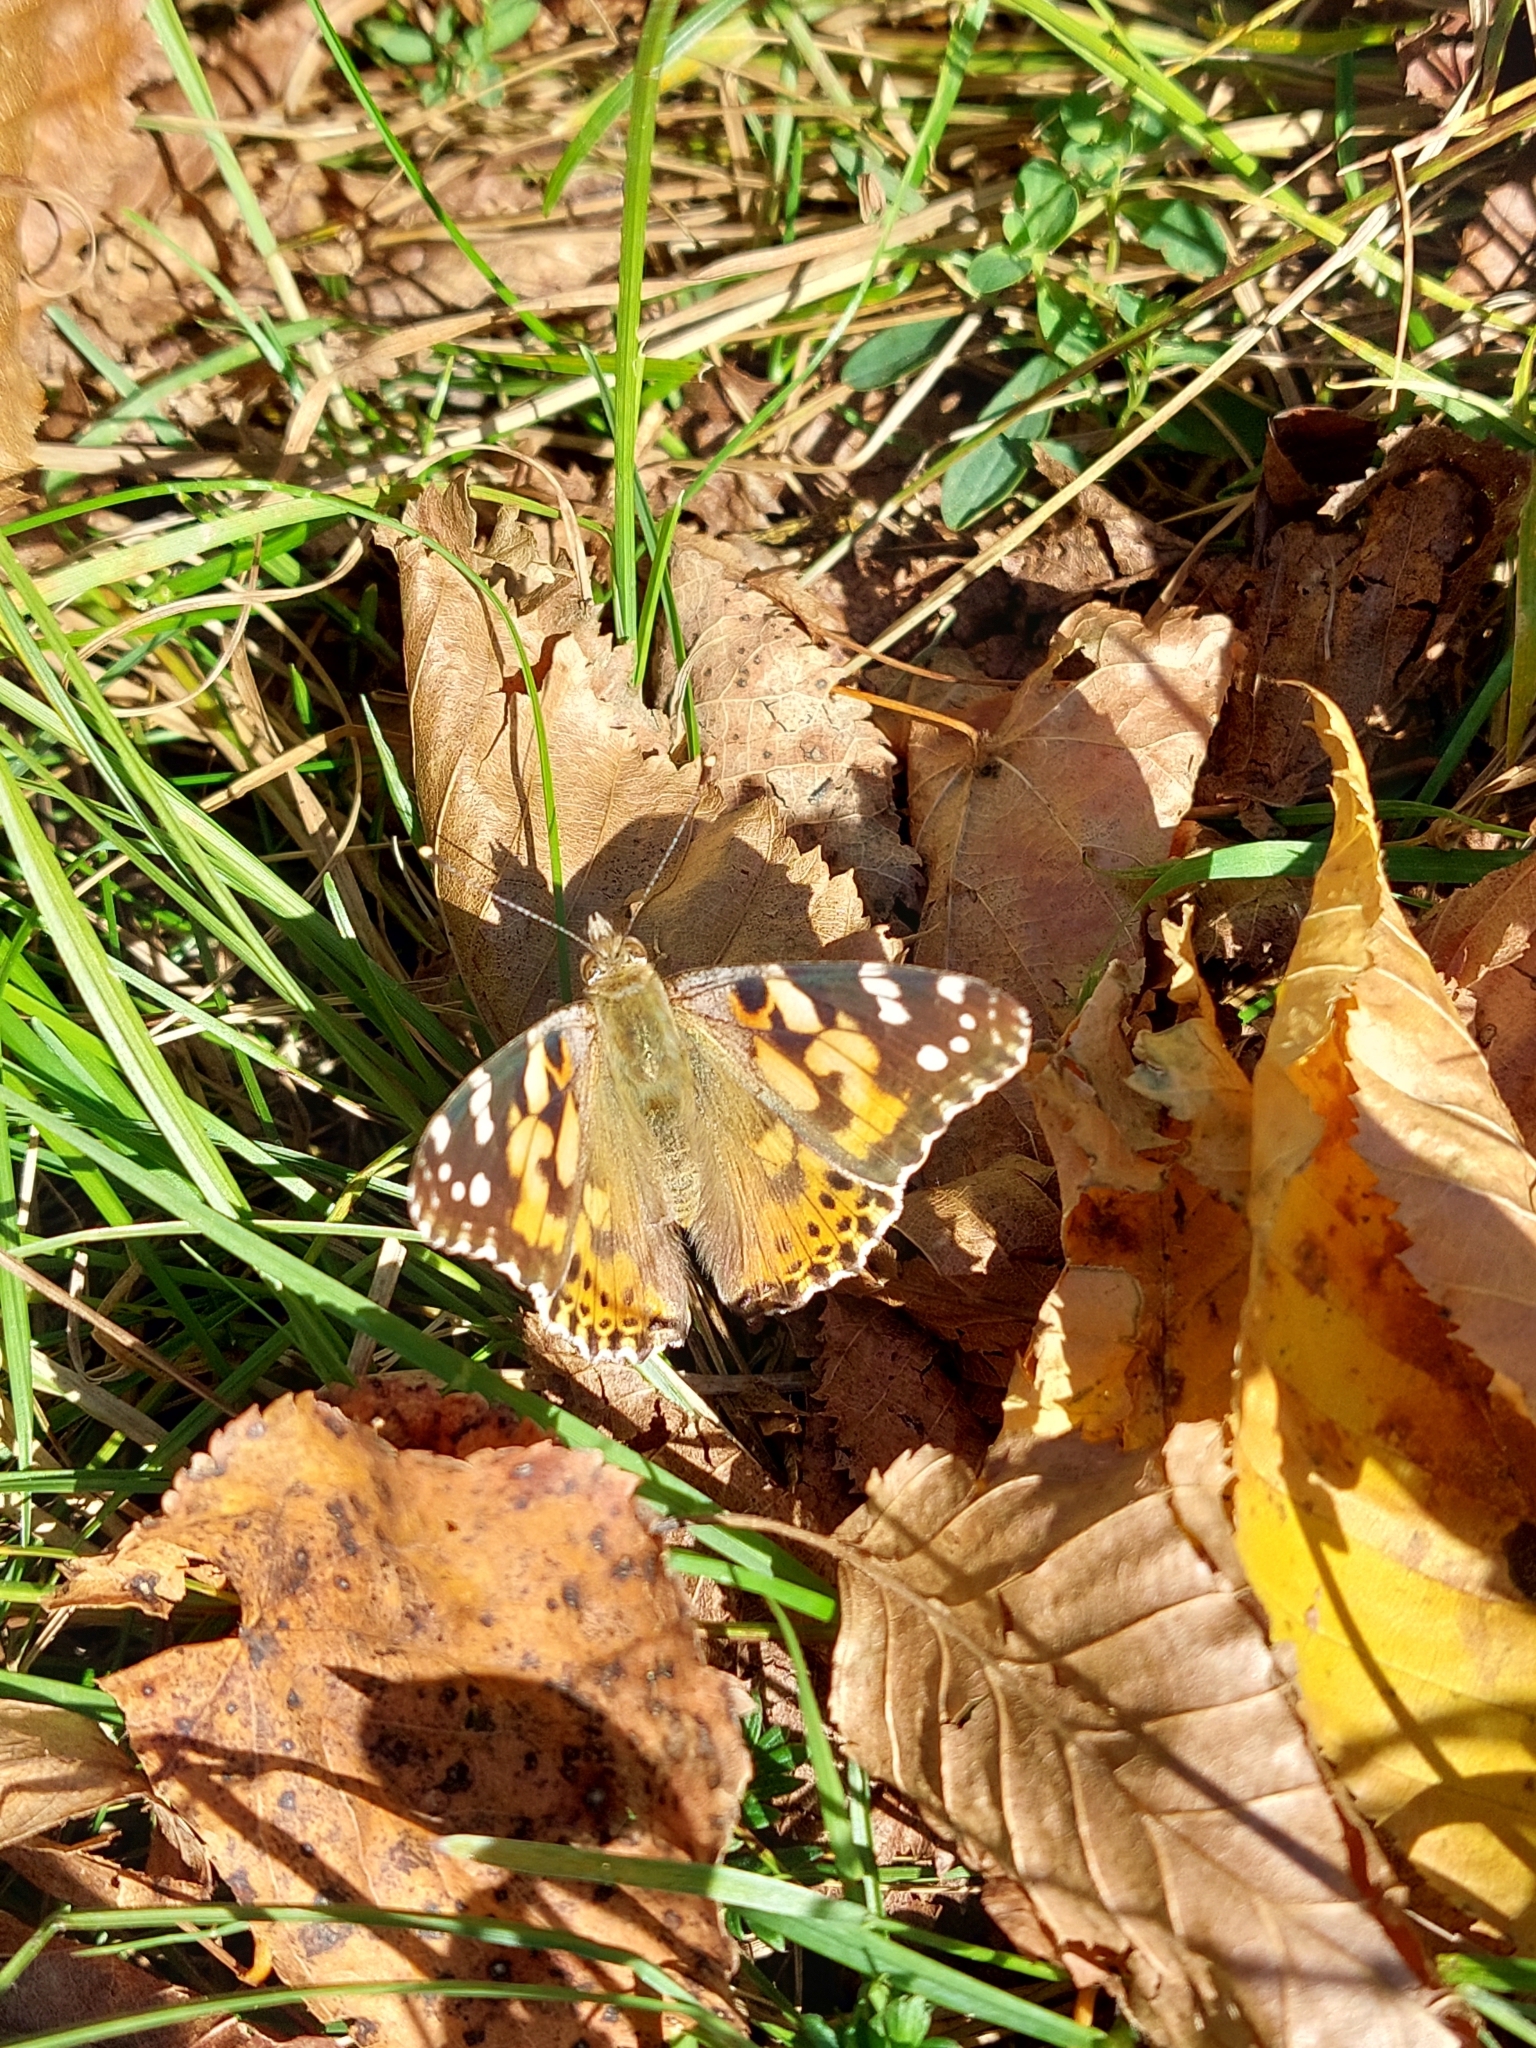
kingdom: Animalia
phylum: Arthropoda
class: Insecta
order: Lepidoptera
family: Nymphalidae
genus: Vanessa
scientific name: Vanessa cardui
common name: Painted lady
